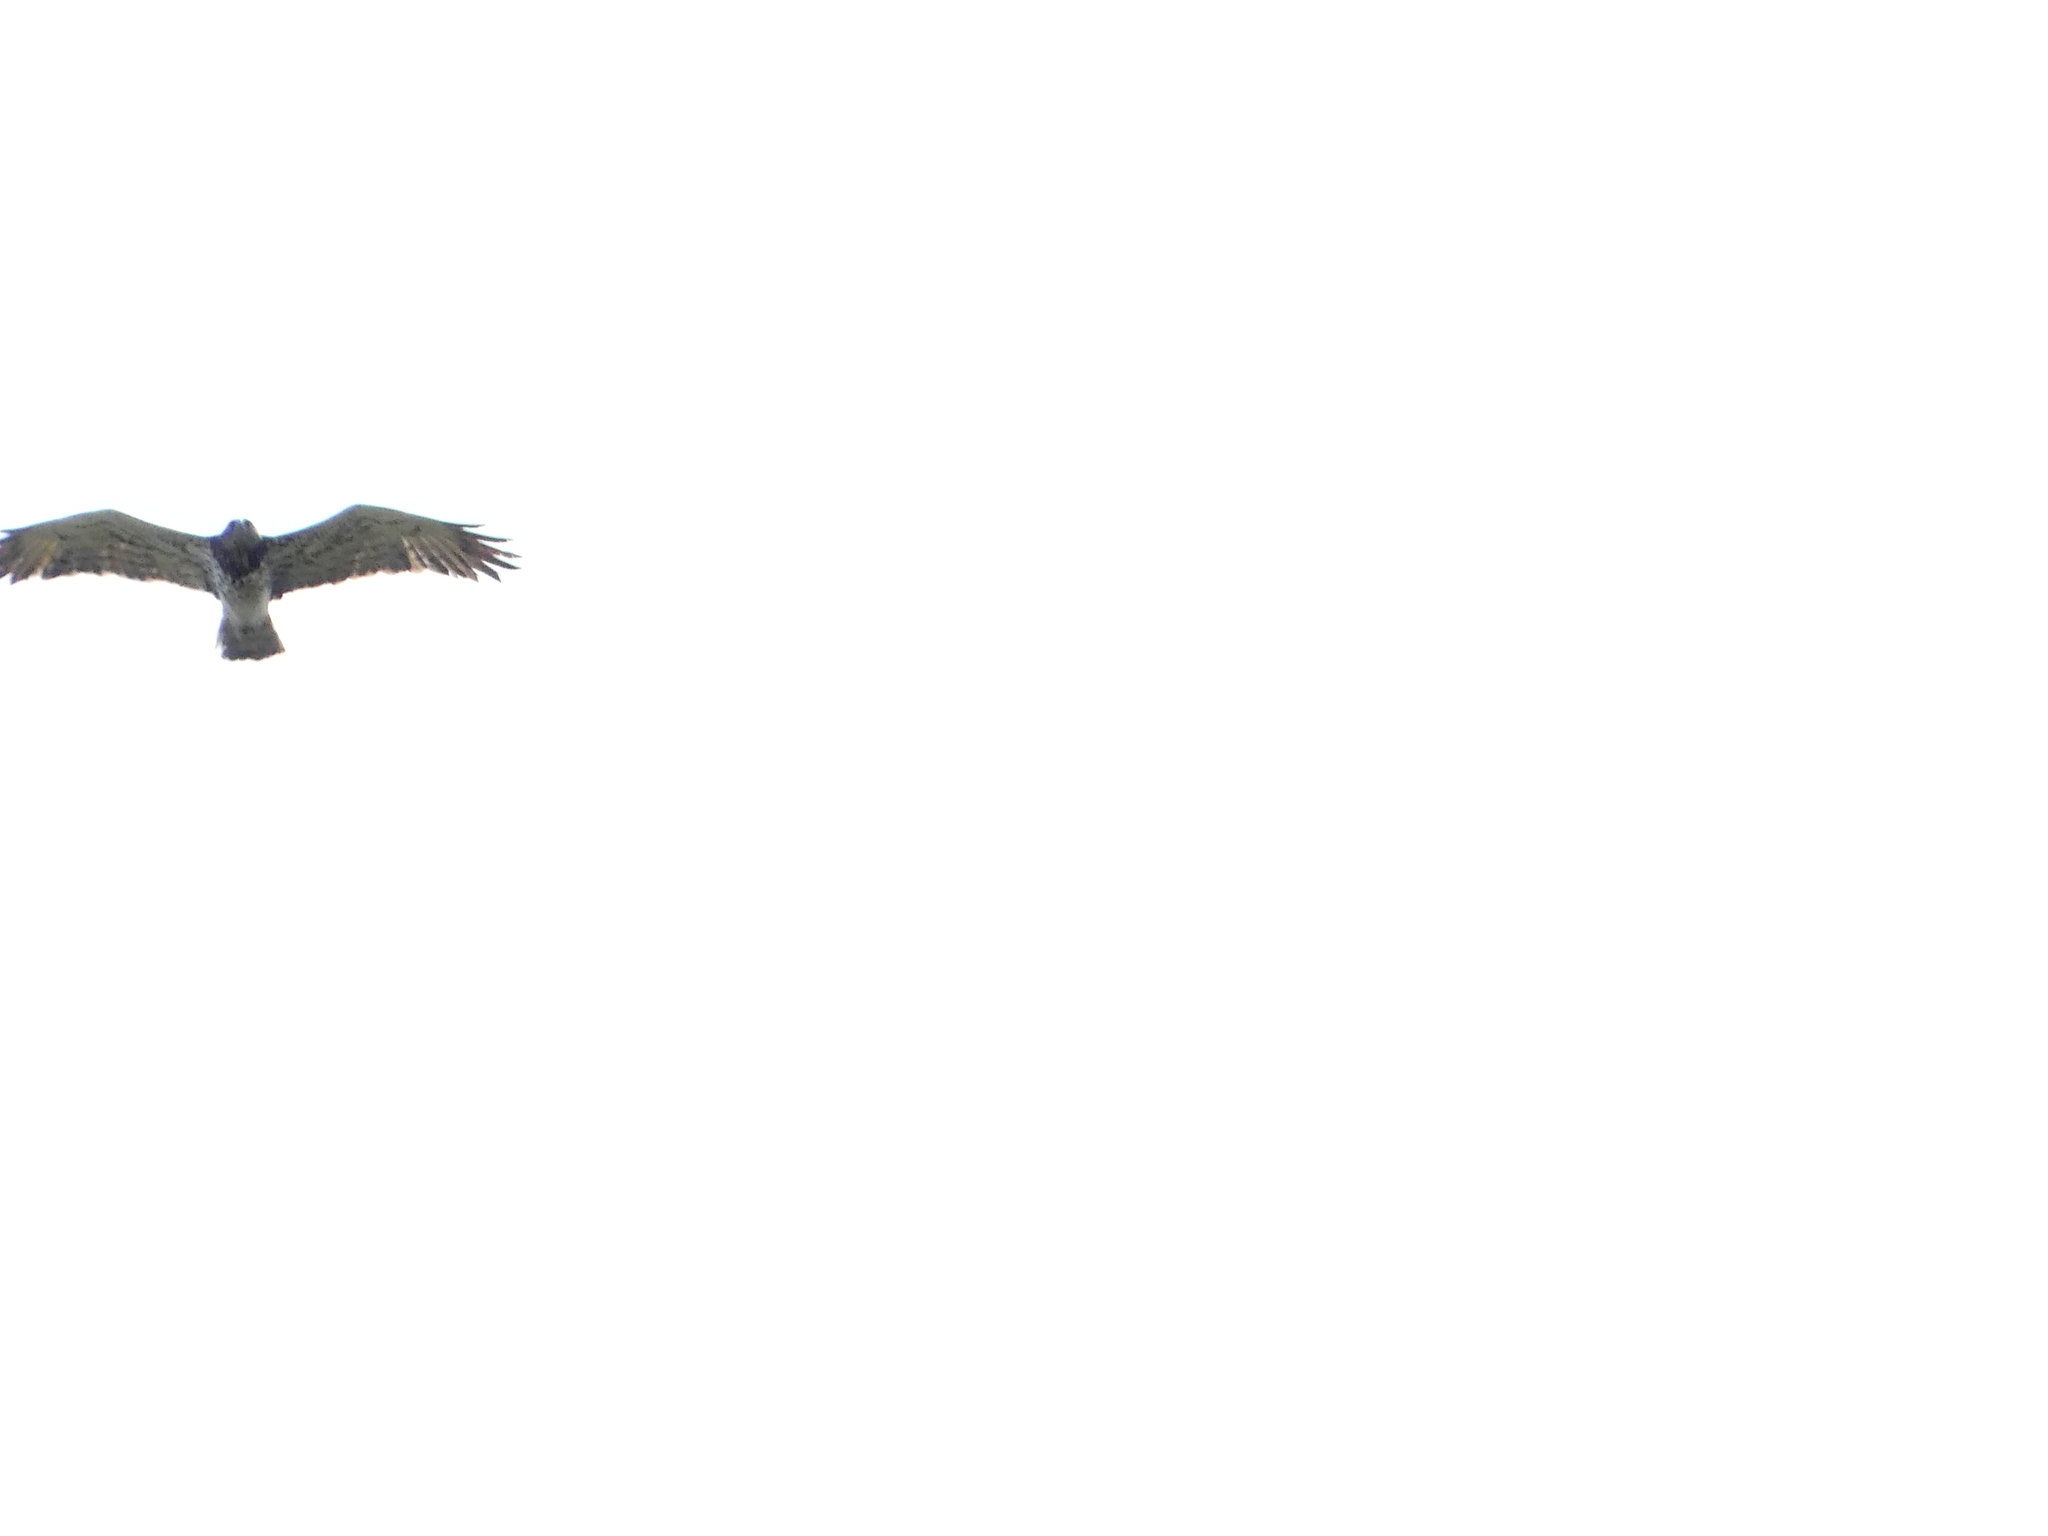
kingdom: Animalia
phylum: Chordata
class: Aves
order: Accipitriformes
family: Accipitridae
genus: Circaetus
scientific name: Circaetus gallicus
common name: Short-toed snake eagle
